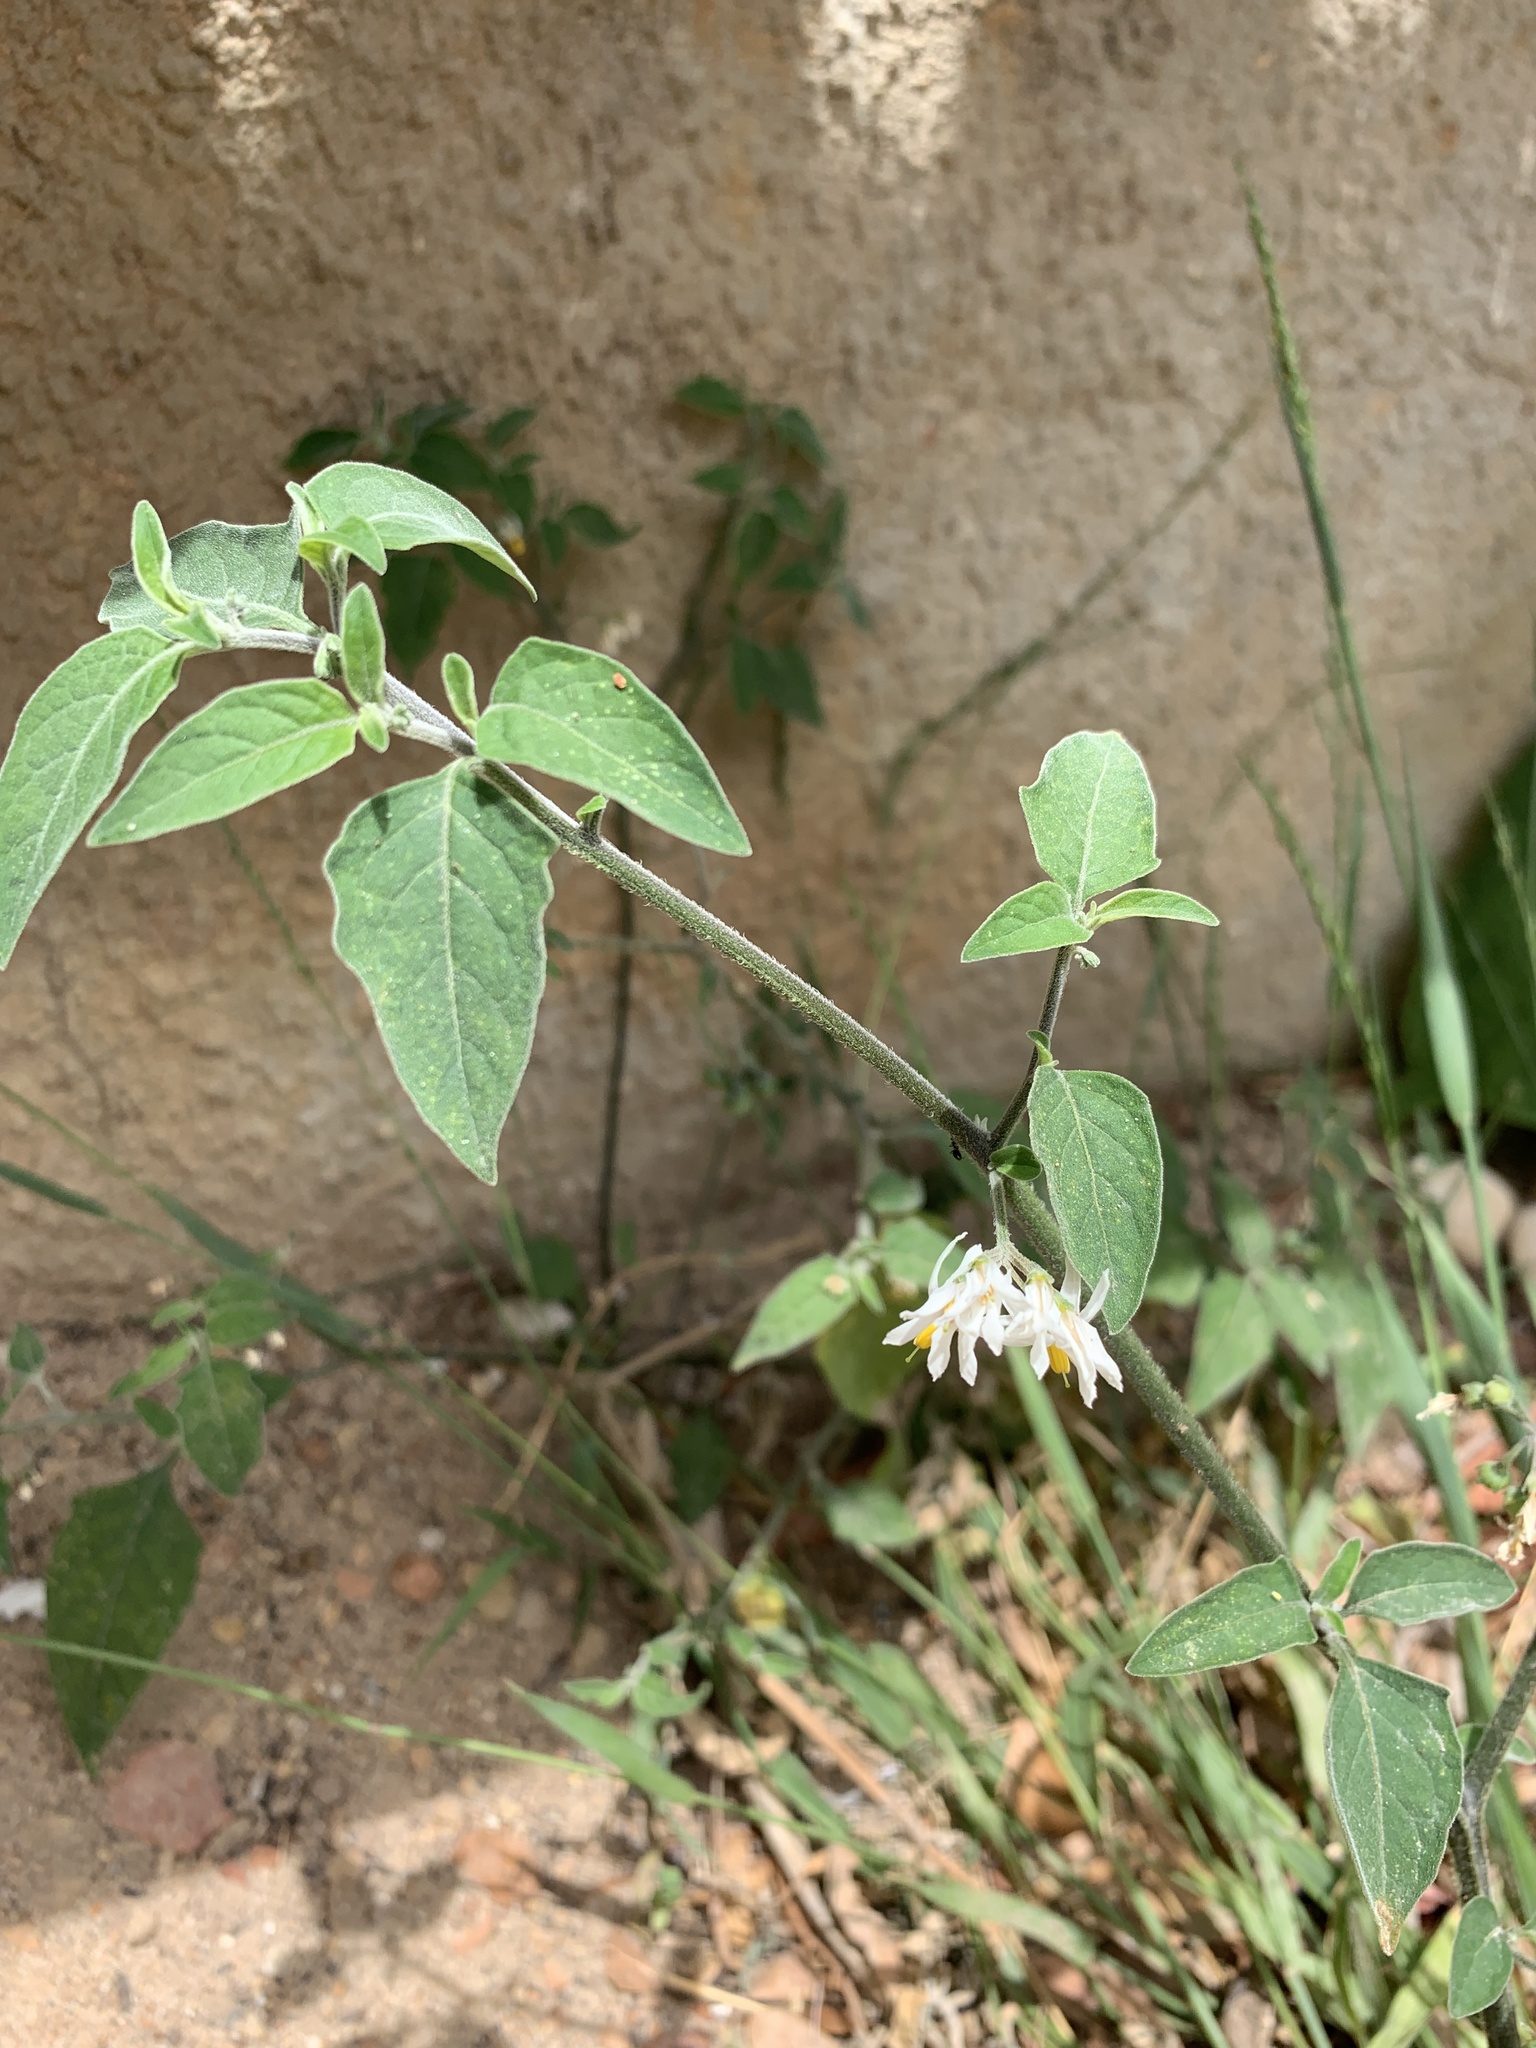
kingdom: Plantae
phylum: Tracheophyta
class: Magnoliopsida
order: Solanales
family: Solanaceae
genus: Solanum
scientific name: Solanum chenopodioides
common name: Tall nightshade
